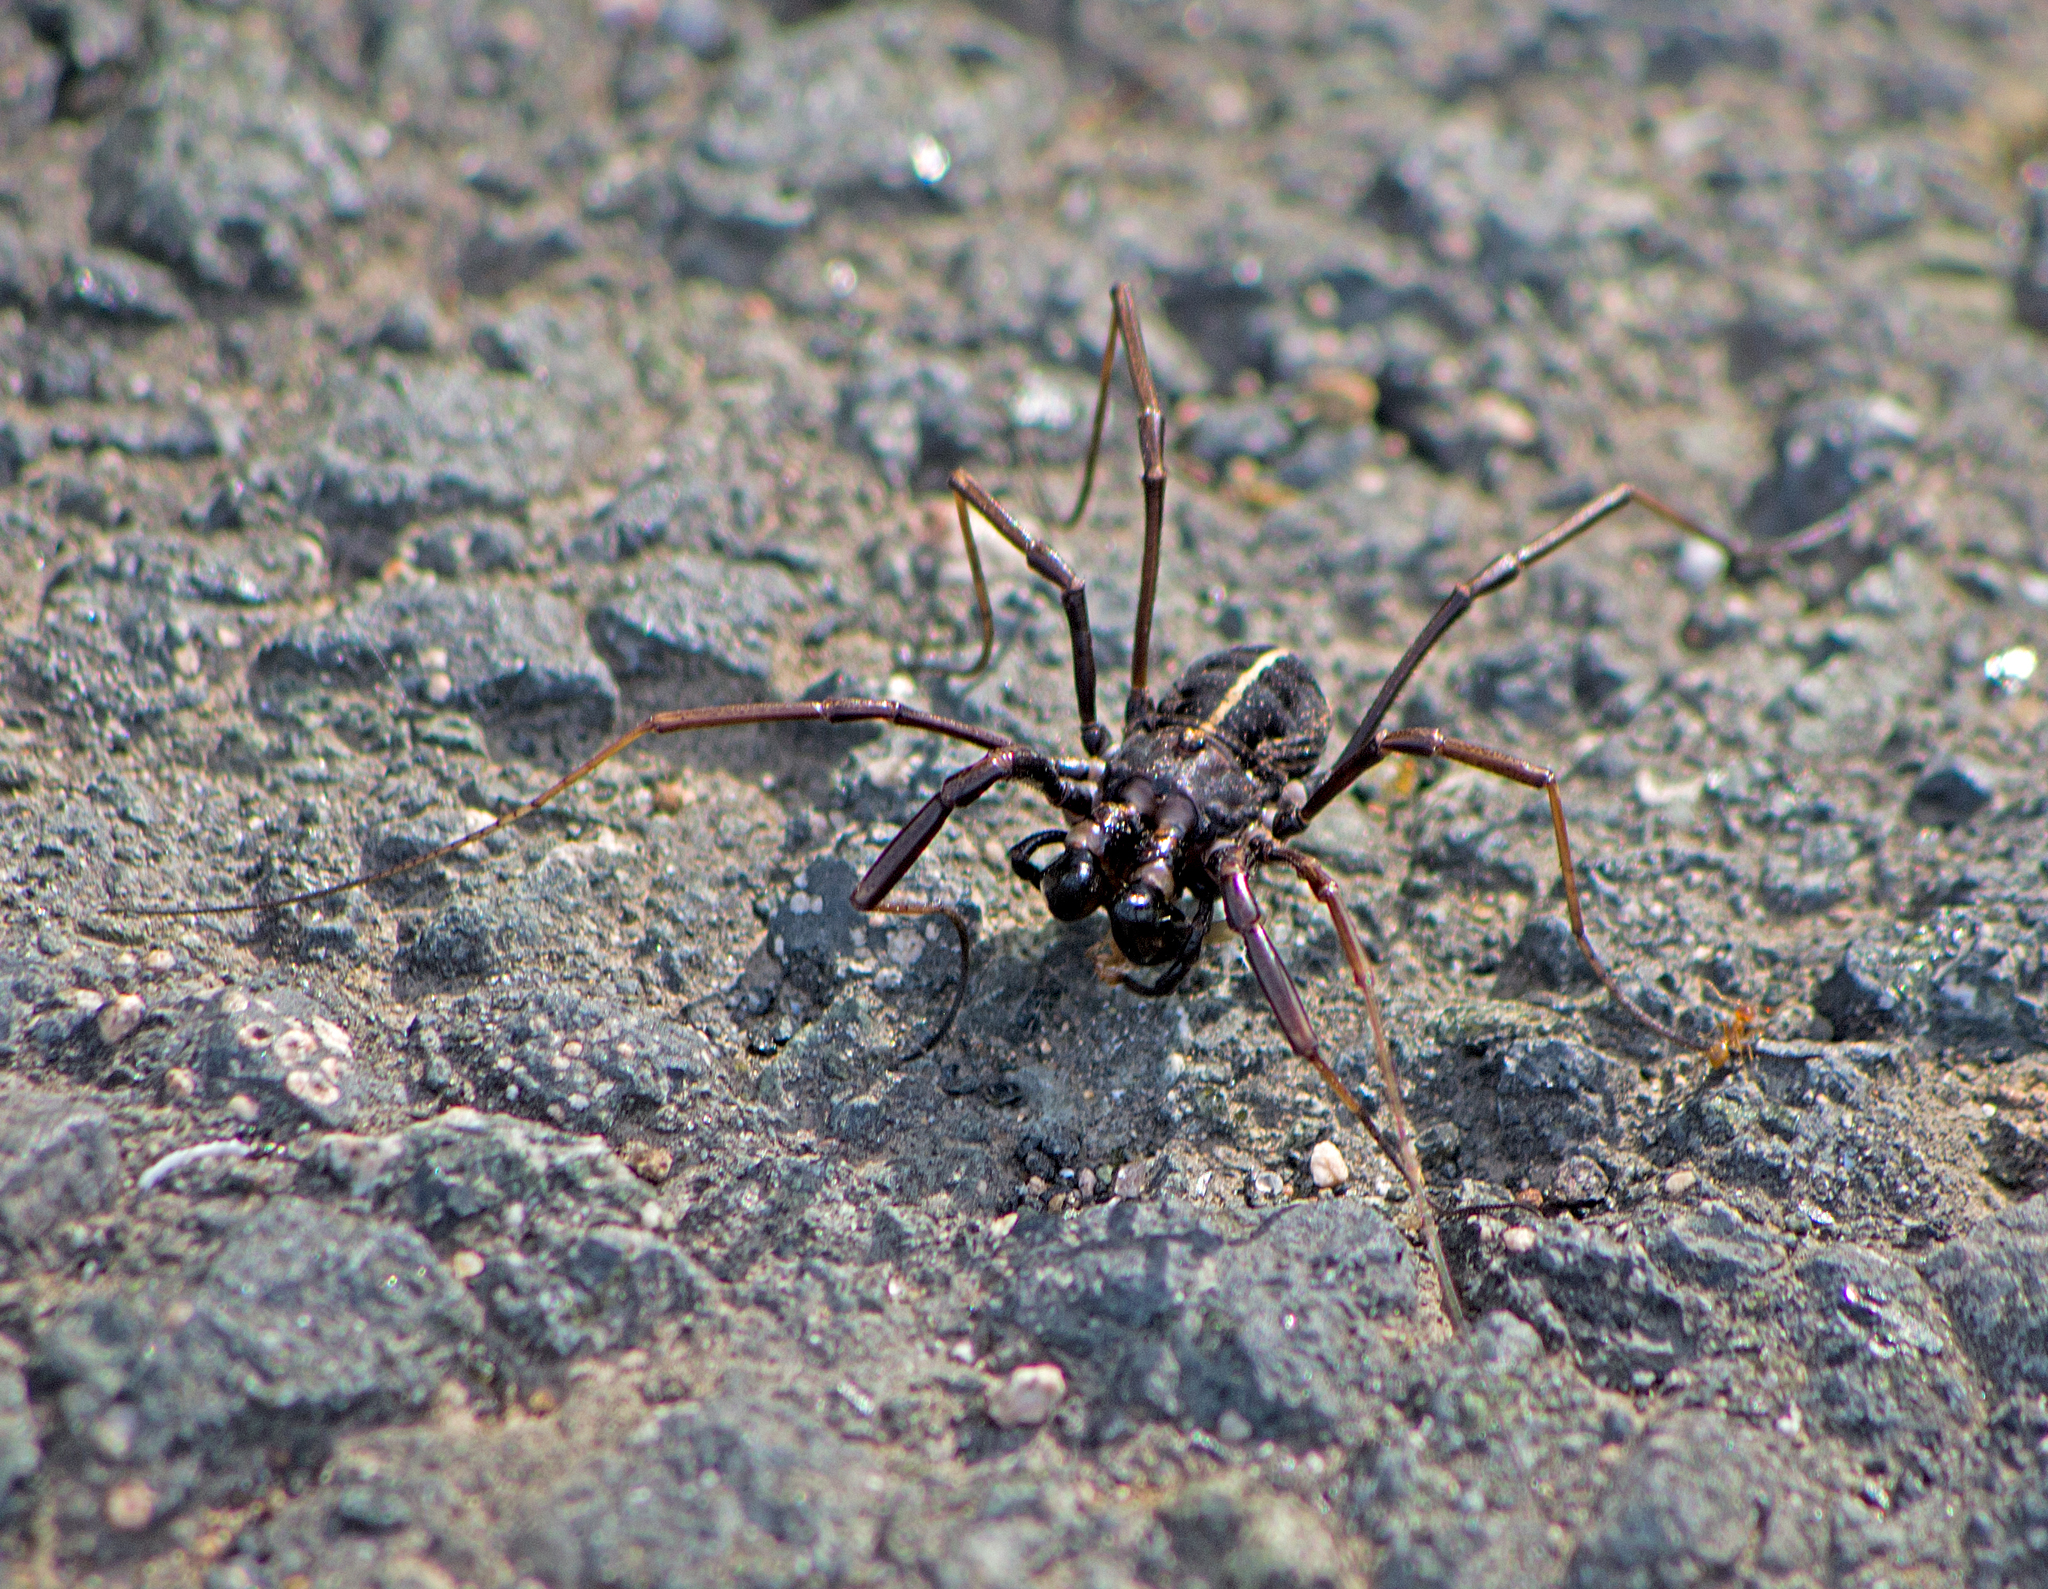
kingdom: Animalia
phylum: Arthropoda
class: Arachnida
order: Opiliones
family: Phalangiidae
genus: Zachaeus
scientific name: Zachaeus crista
